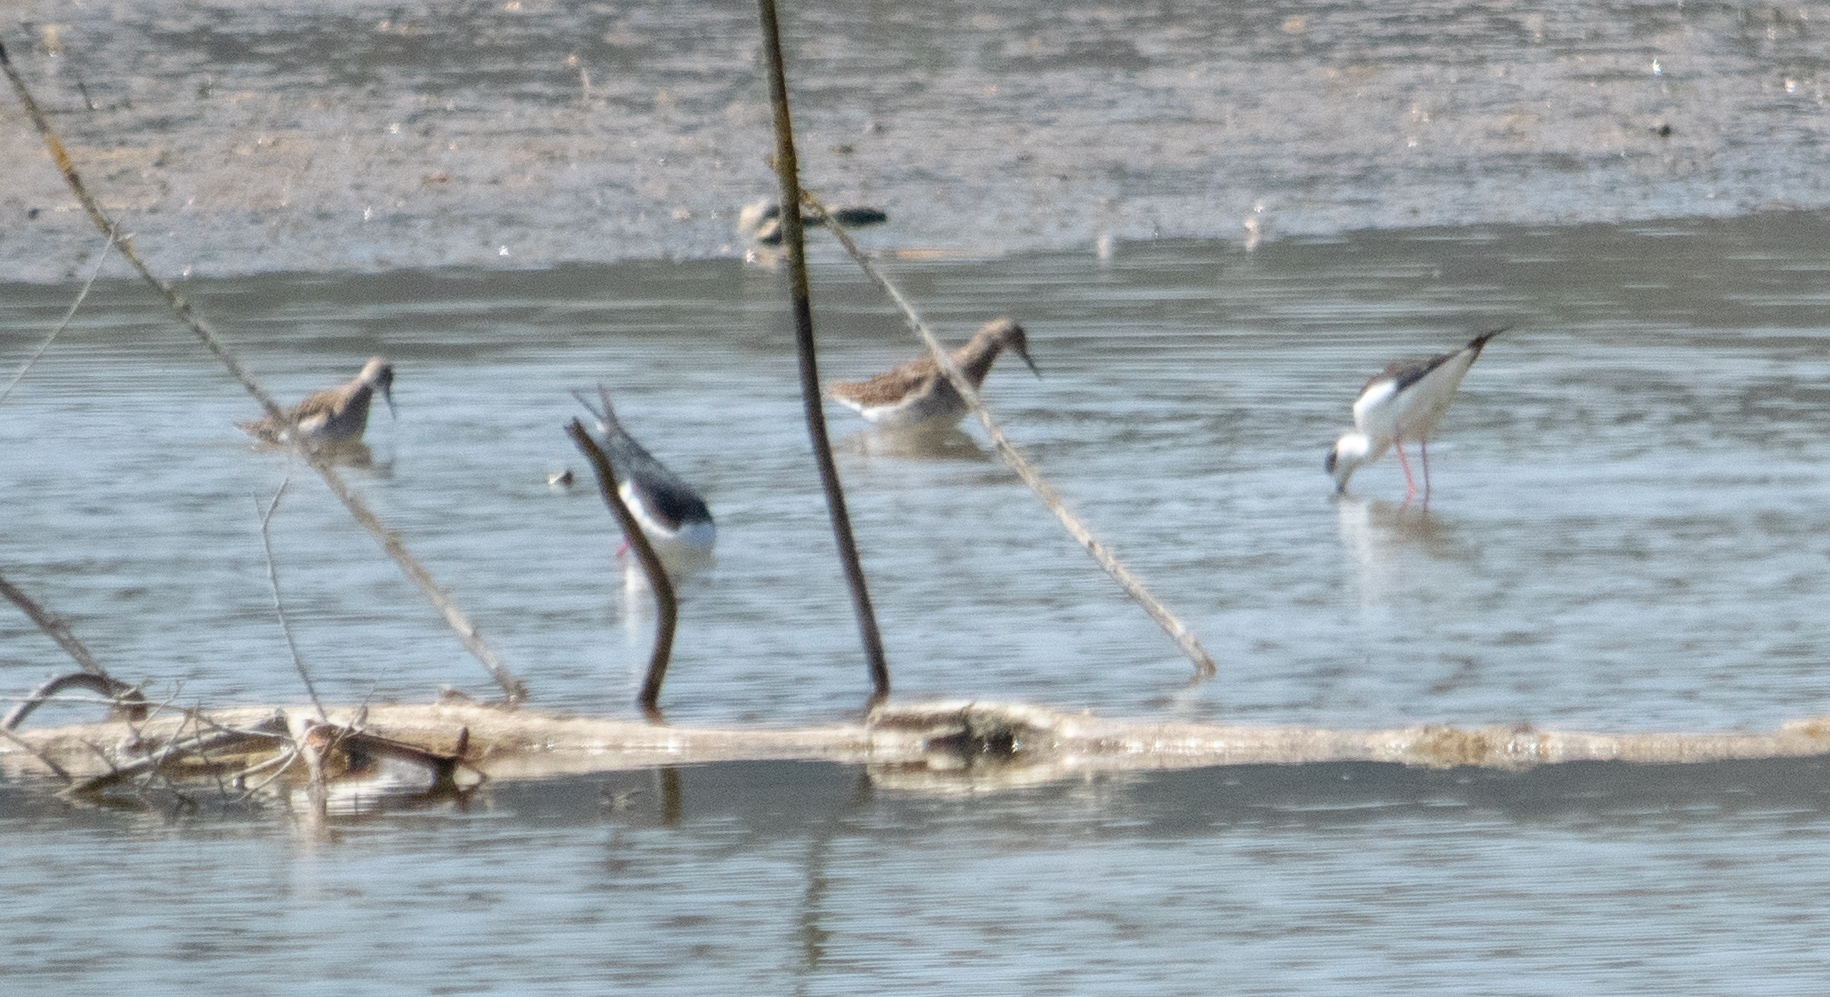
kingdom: Animalia
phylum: Chordata
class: Aves
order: Charadriiformes
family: Scolopacidae
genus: Calidris
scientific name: Calidris pugnax
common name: Ruff
